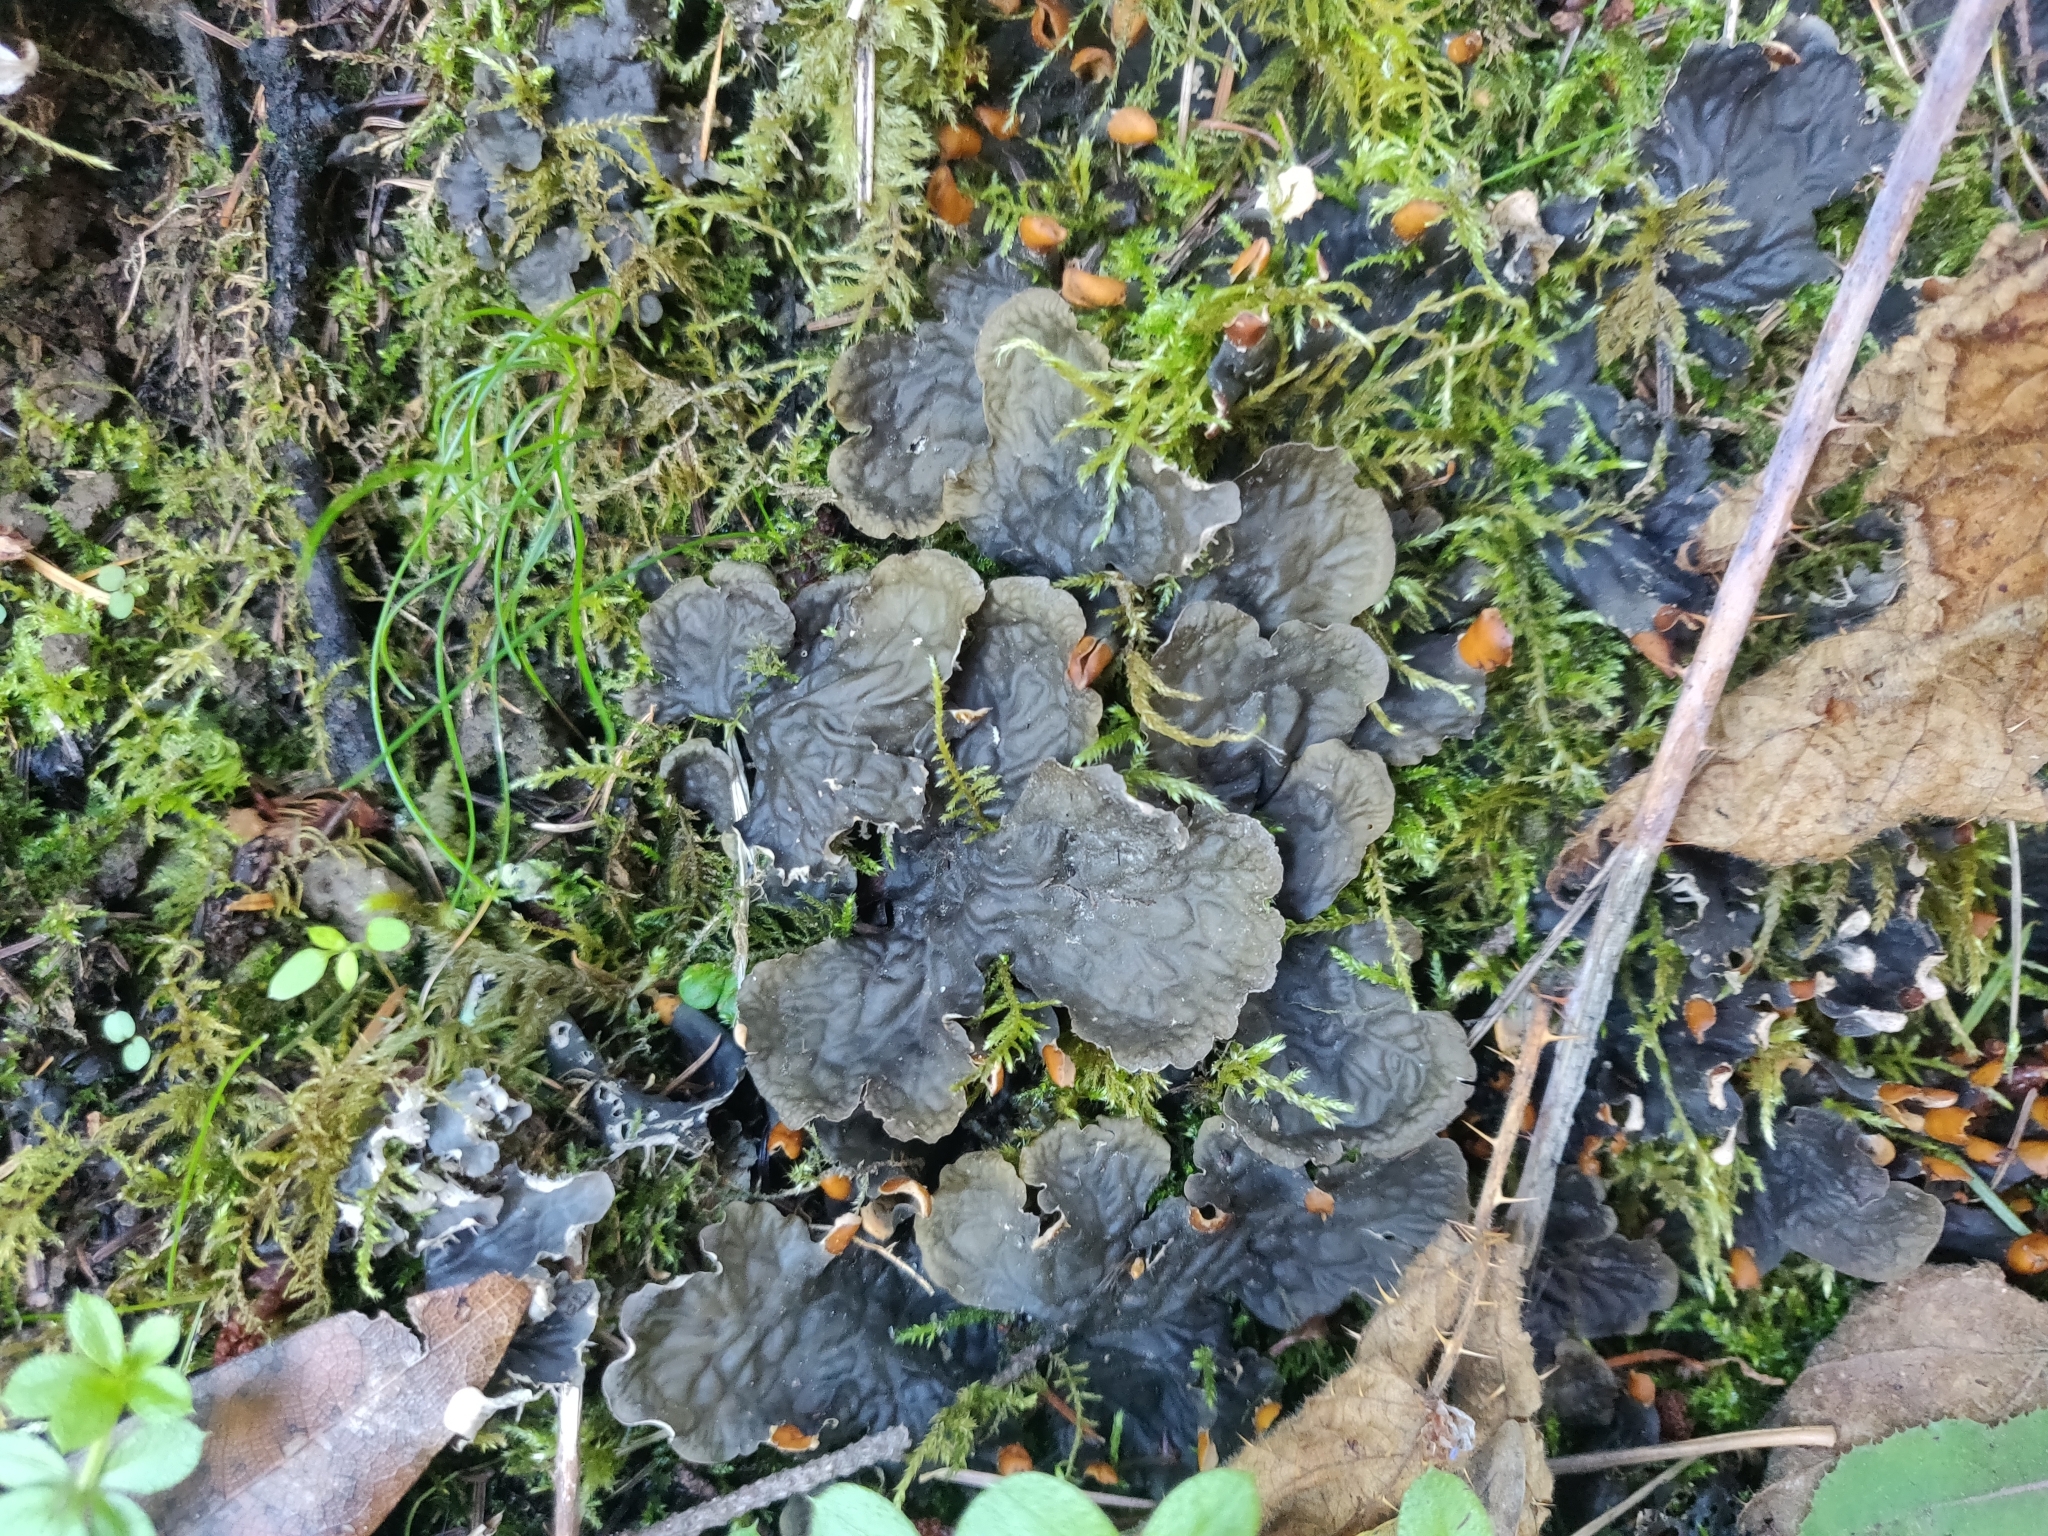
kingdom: Fungi
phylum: Ascomycota
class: Lecanoromycetes
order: Peltigerales
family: Peltigeraceae
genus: Peltigera
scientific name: Peltigera membranacea
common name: Membranous pelt lichen
